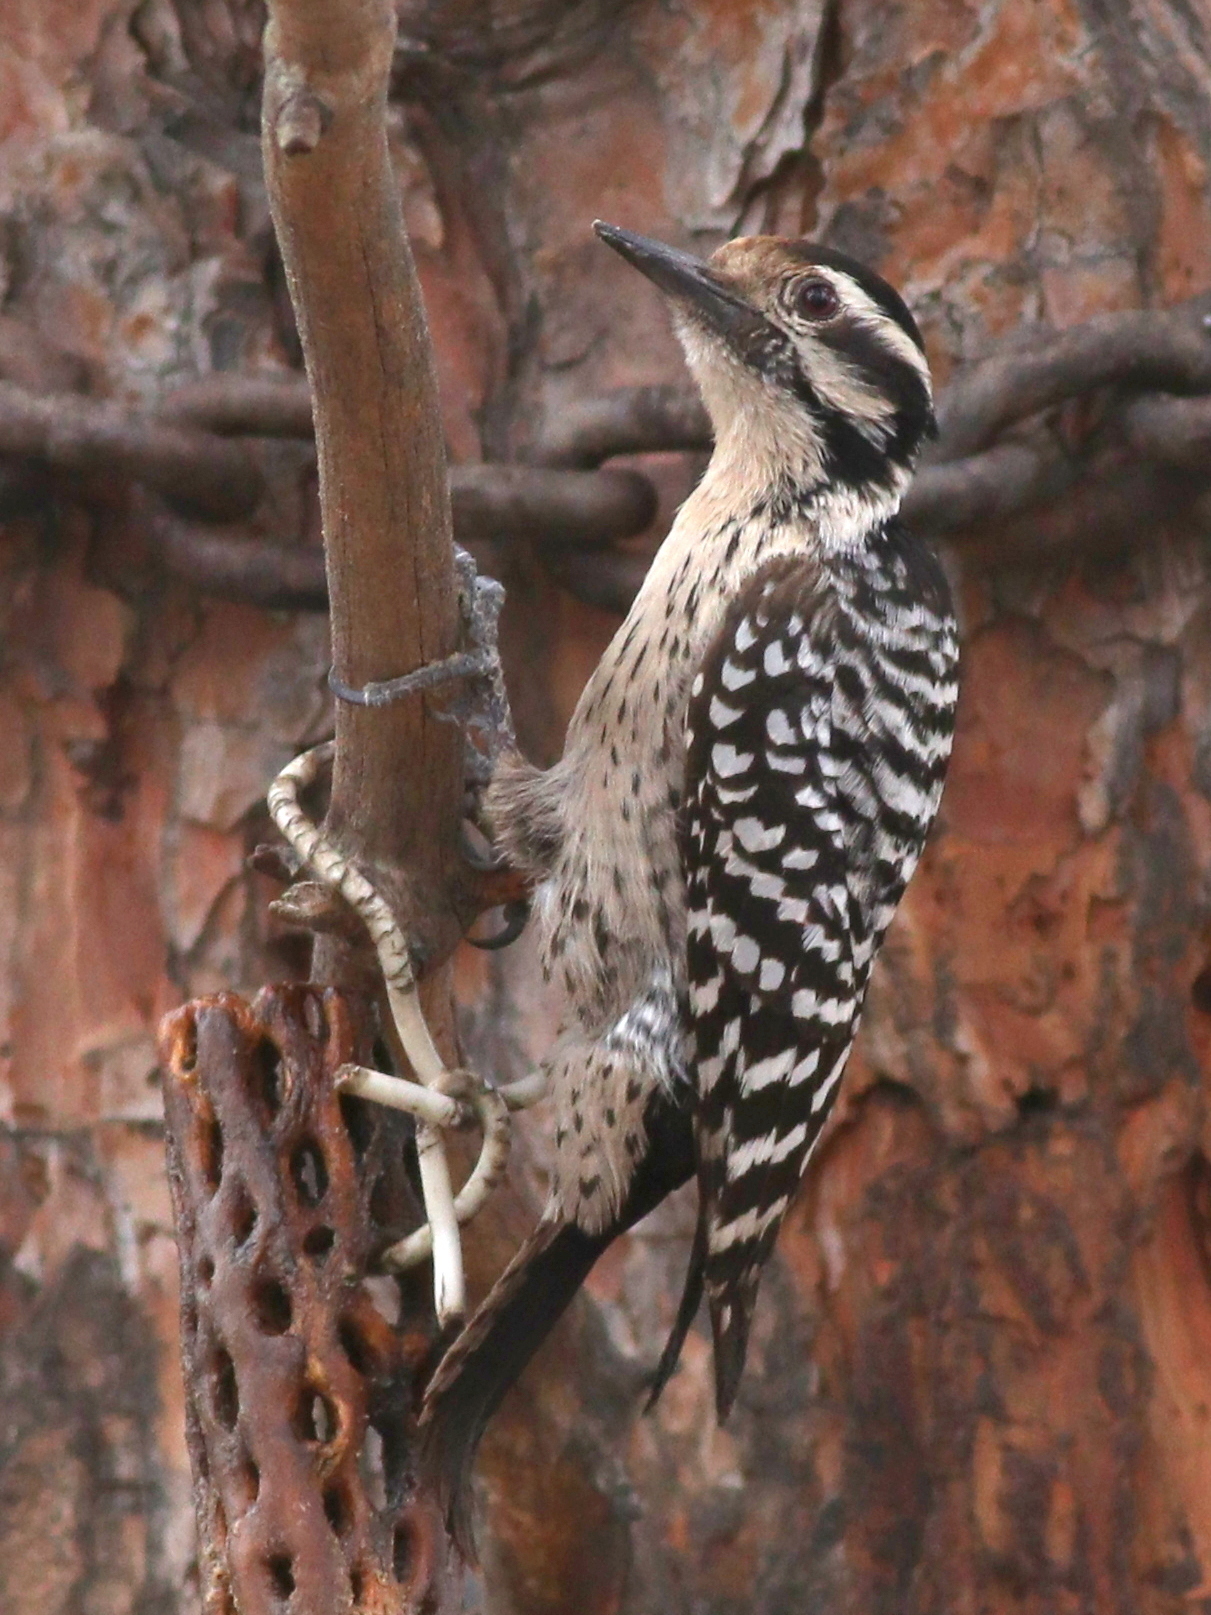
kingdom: Animalia
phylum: Chordata
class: Aves
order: Piciformes
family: Picidae
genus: Dryobates
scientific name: Dryobates scalaris
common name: Ladder-backed woodpecker
